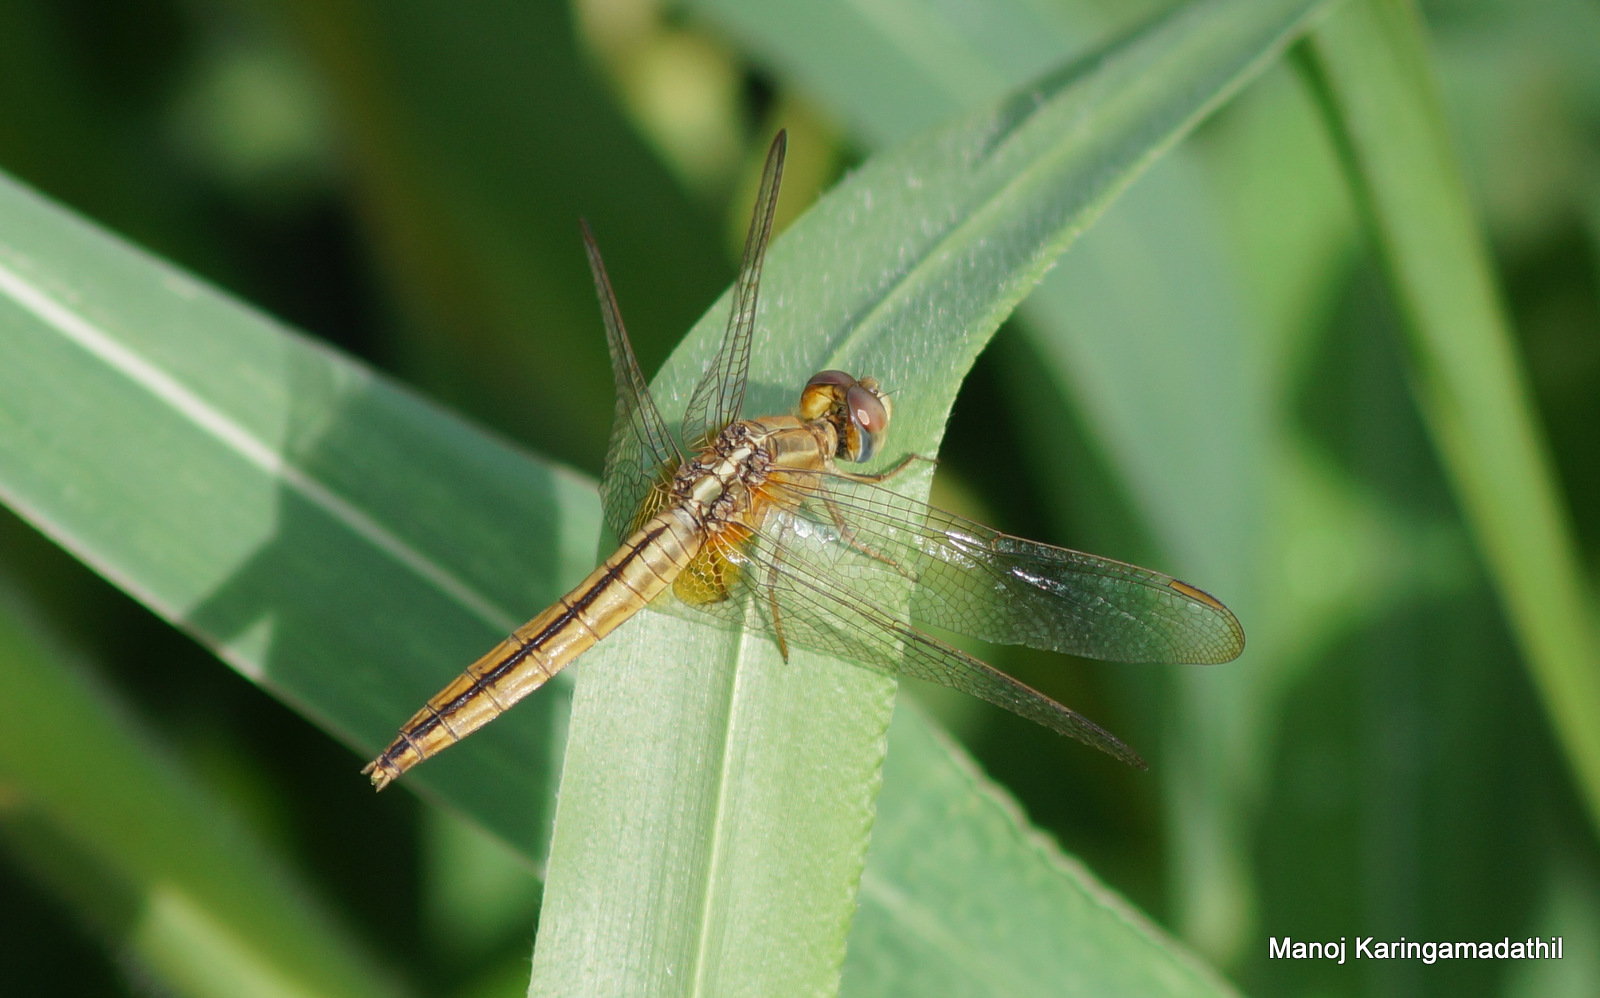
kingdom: Animalia
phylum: Arthropoda
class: Insecta
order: Odonata
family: Libellulidae
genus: Crocothemis
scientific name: Crocothemis servilia
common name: Scarlet skimmer
